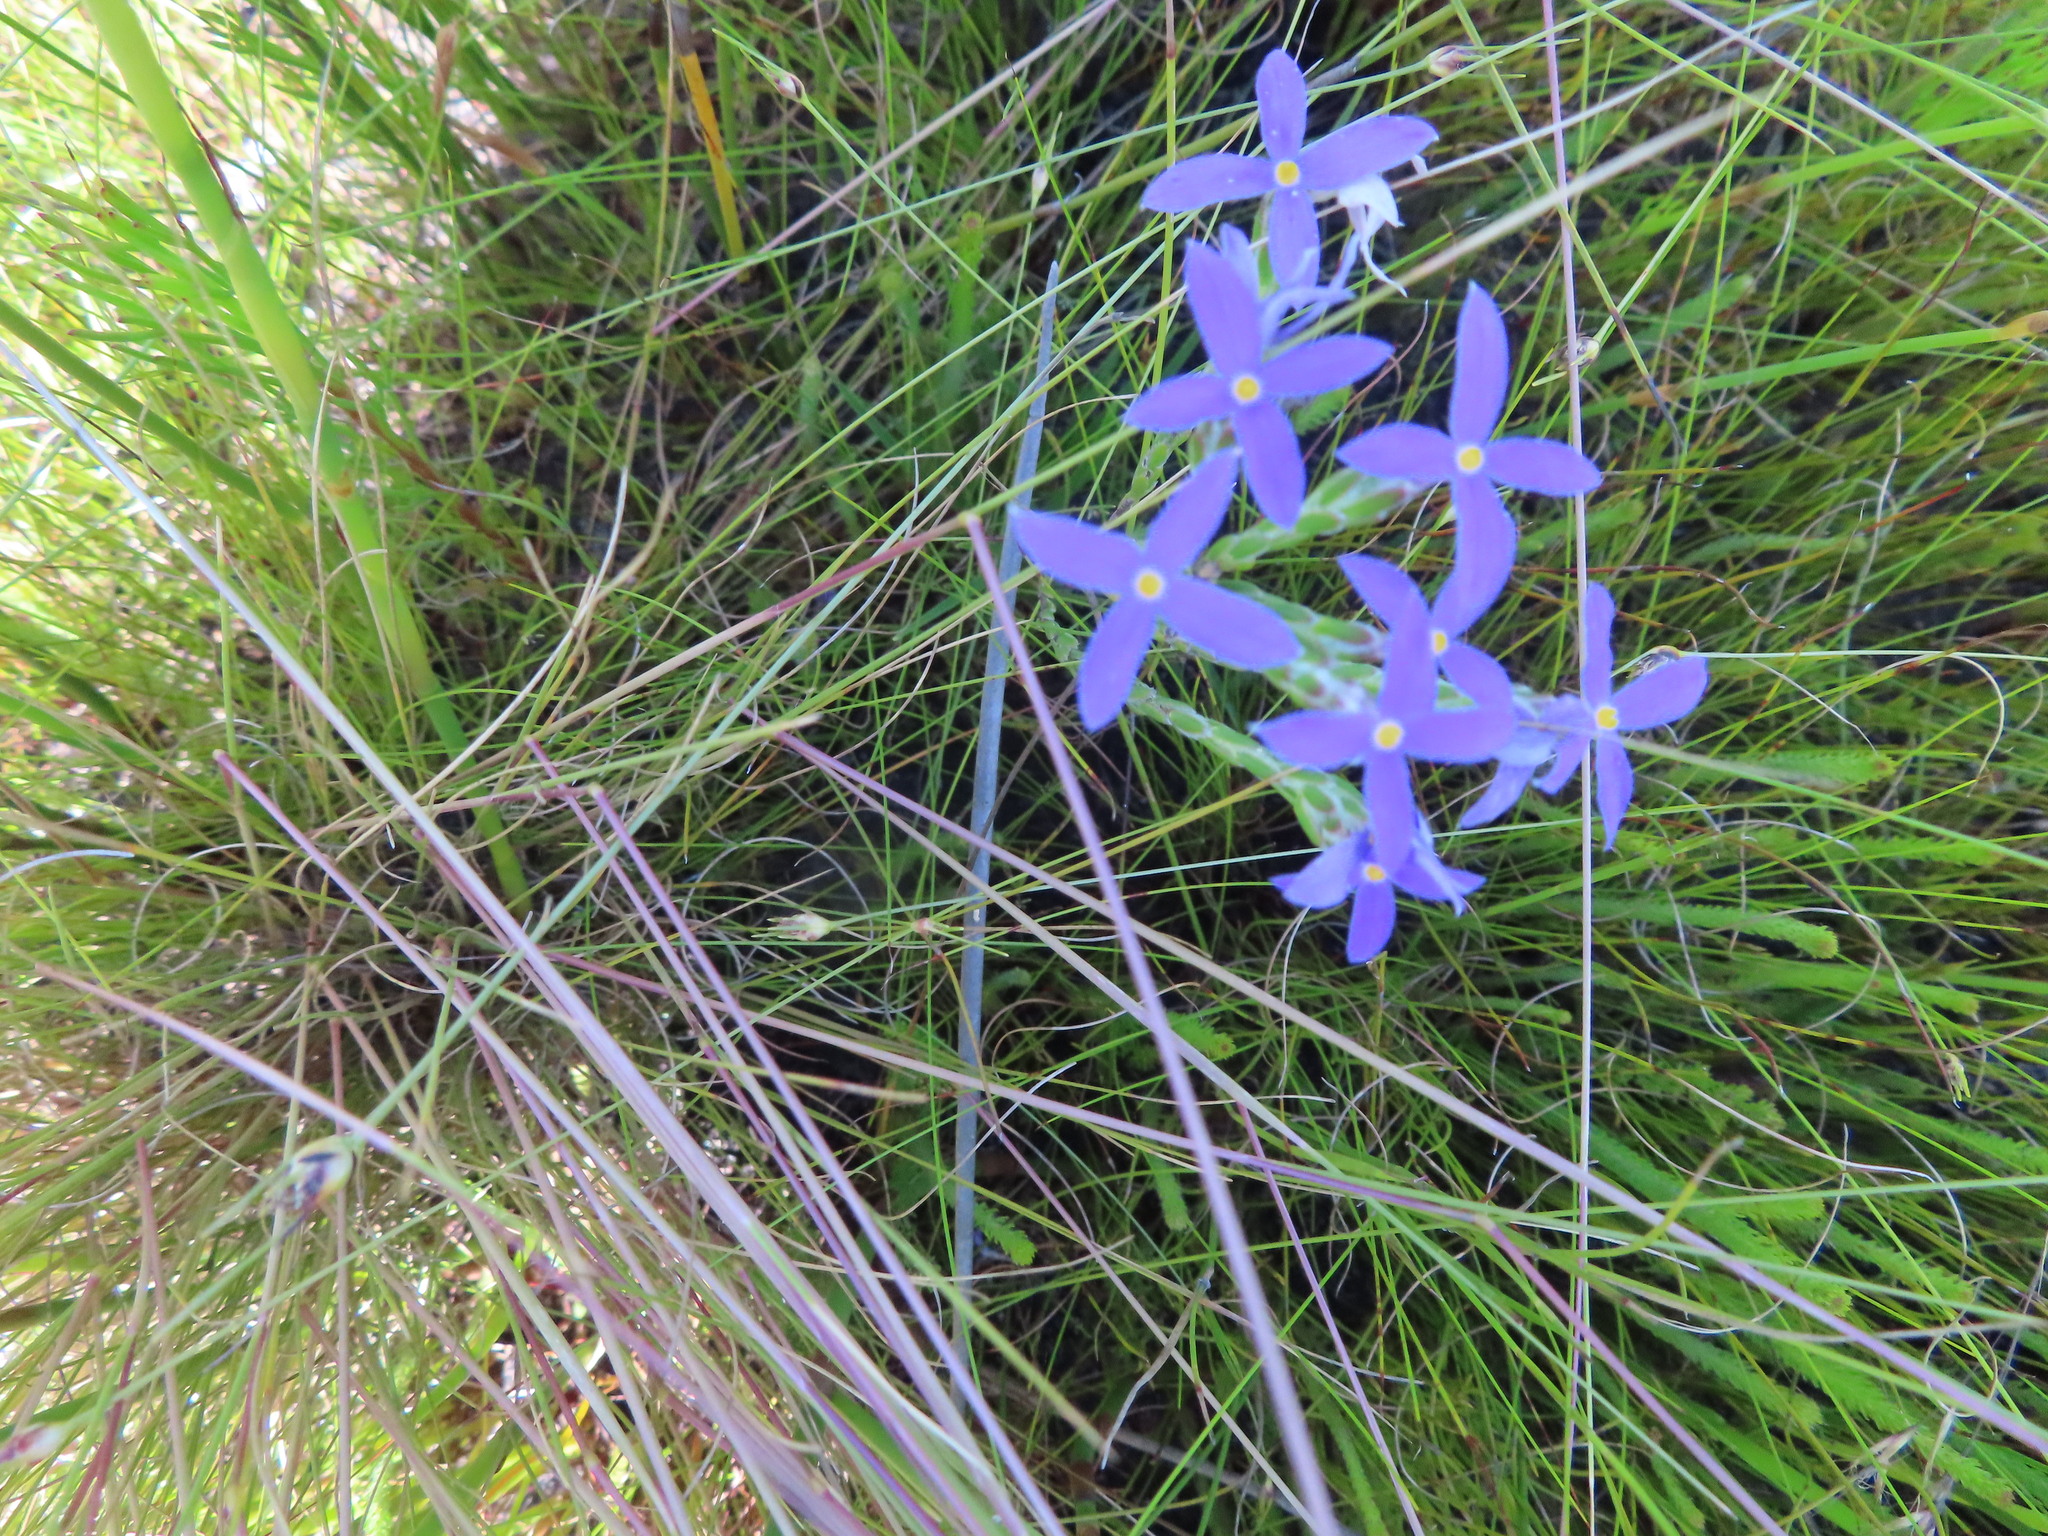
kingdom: Plantae
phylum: Tracheophyta
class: Magnoliopsida
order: Malvales
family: Thymelaeaceae
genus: Gnidia
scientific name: Gnidia penicillata
